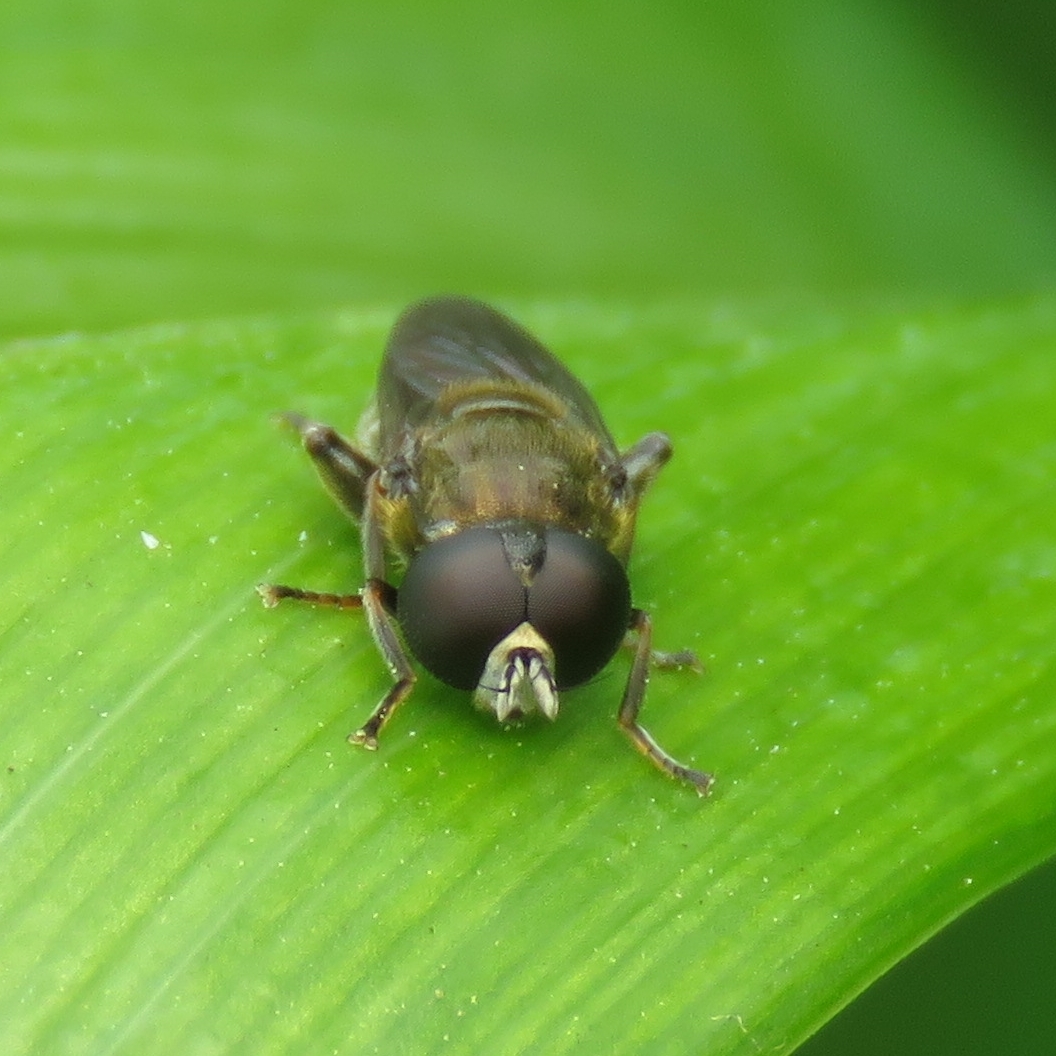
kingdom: Animalia
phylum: Arthropoda
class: Insecta
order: Diptera
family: Syrphidae
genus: Eumerus
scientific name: Eumerus
